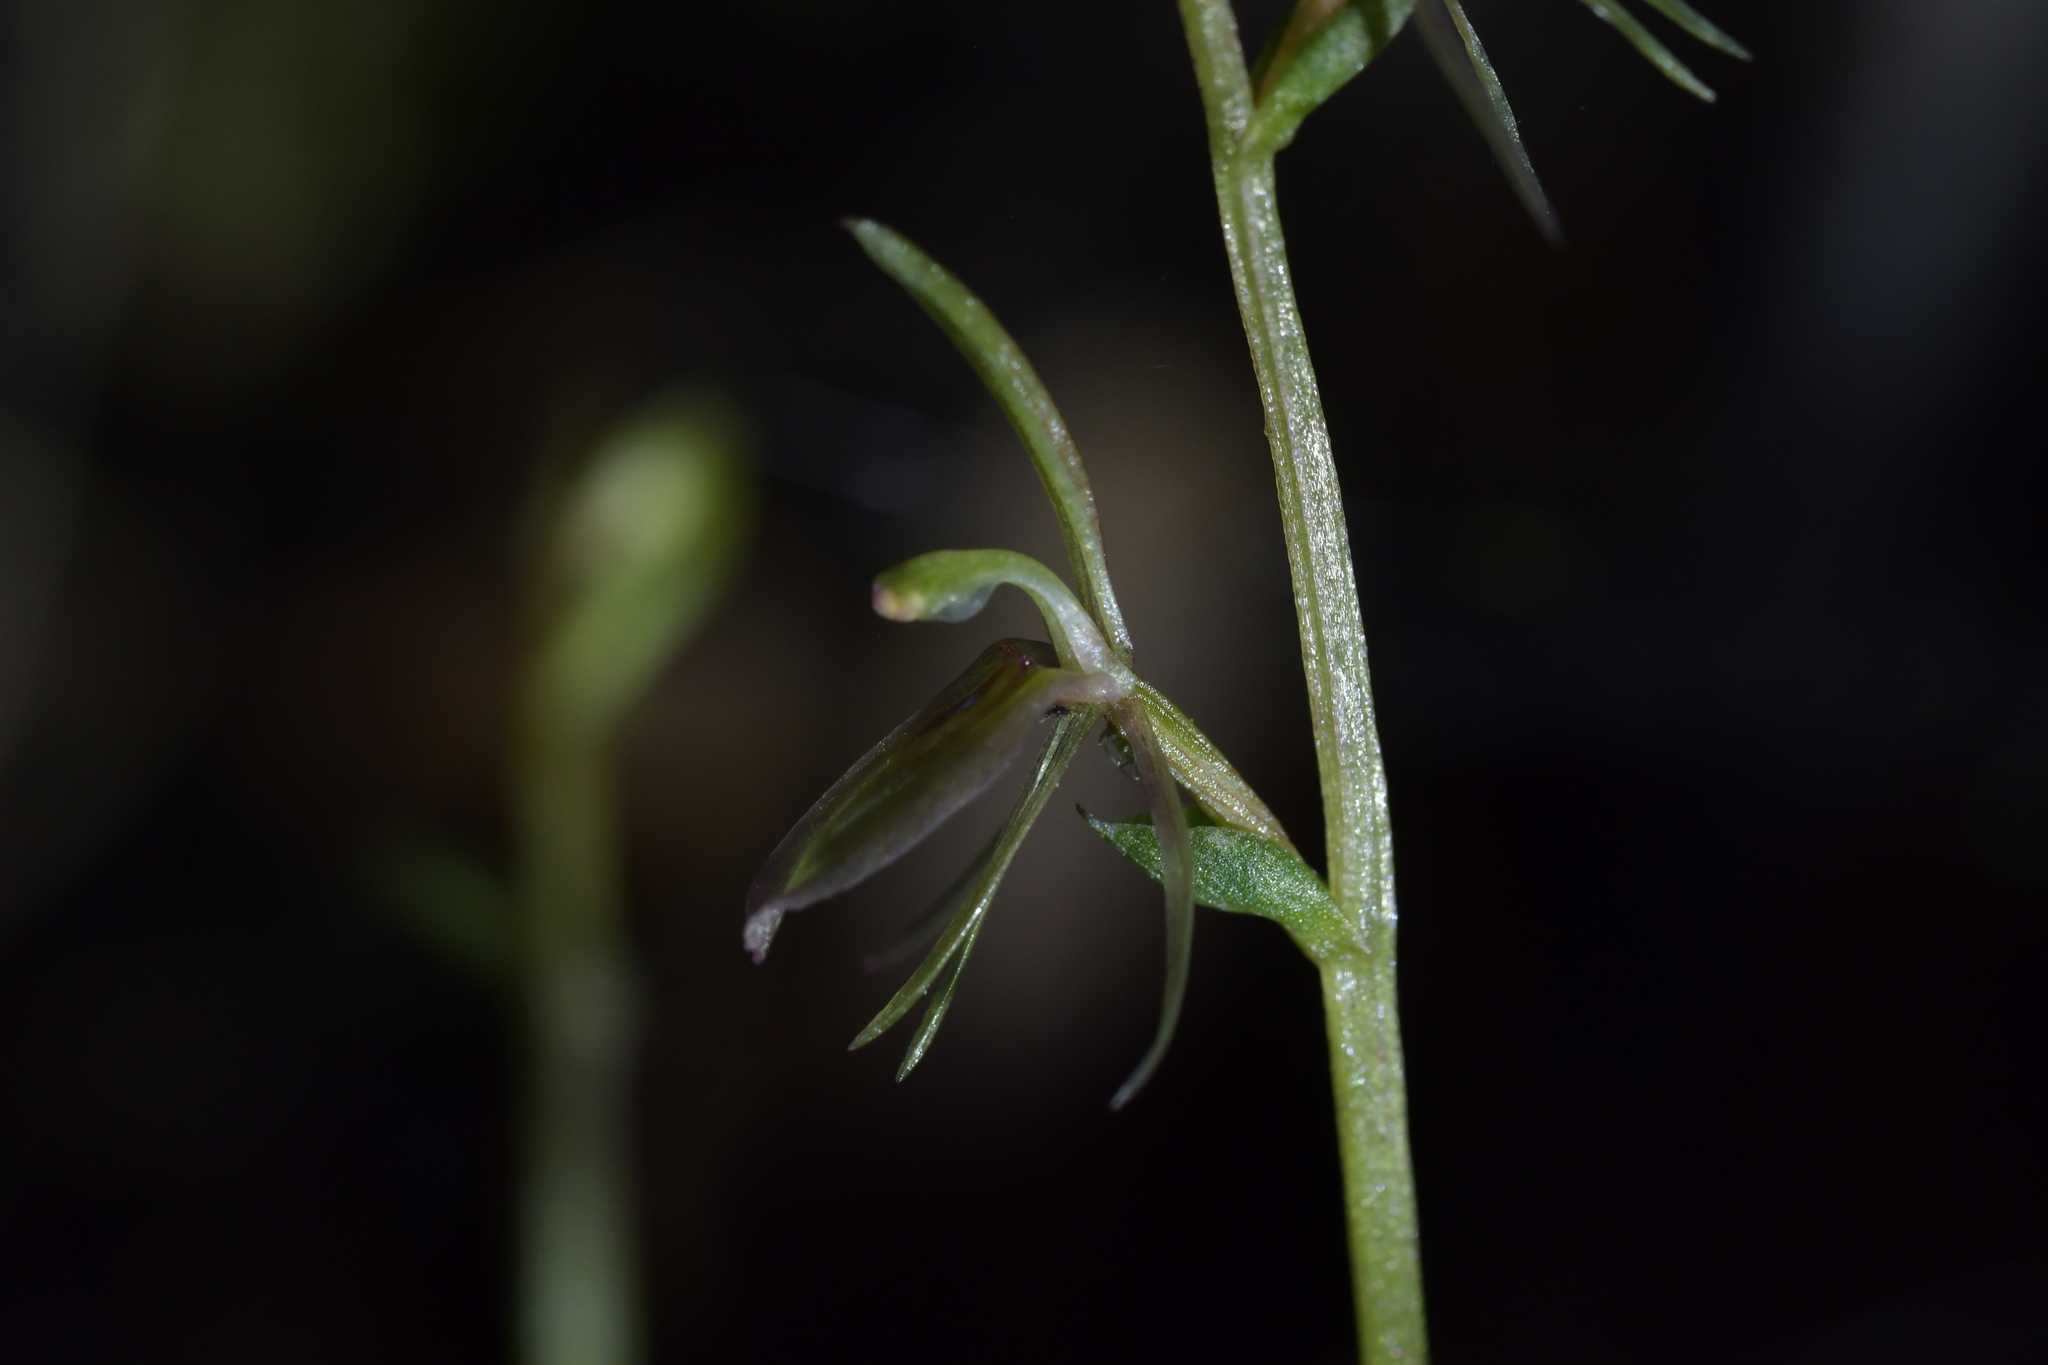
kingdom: Plantae
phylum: Tracheophyta
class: Liliopsida
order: Asparagales
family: Orchidaceae
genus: Cyrtostylis
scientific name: Cyrtostylis oblonga
